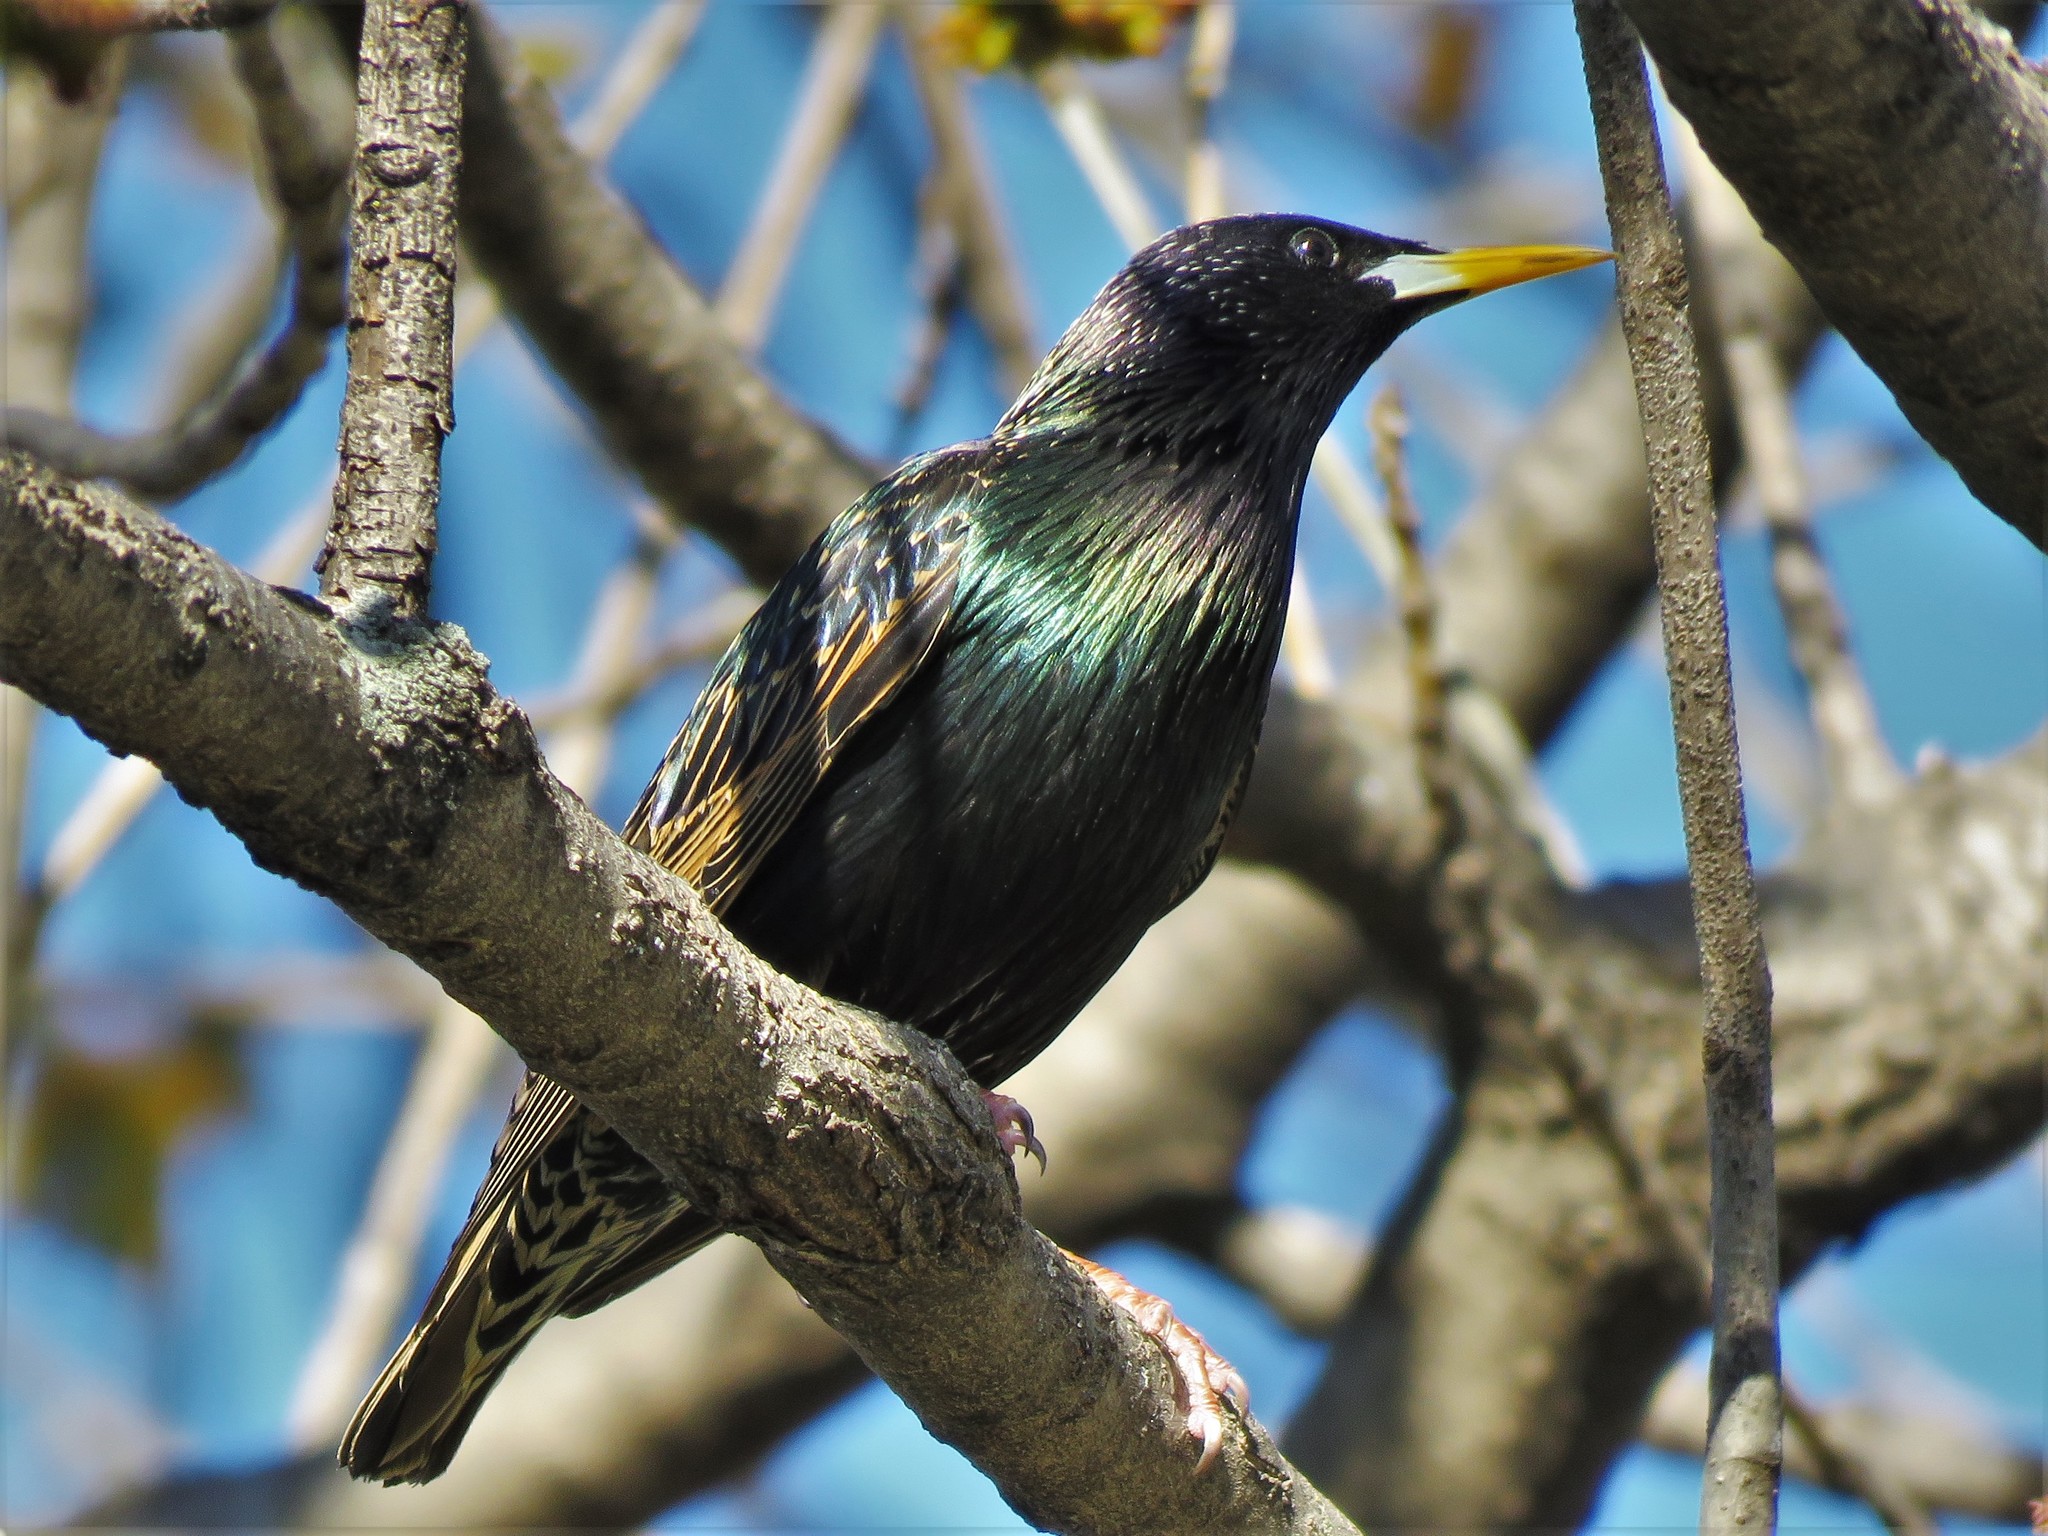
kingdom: Animalia
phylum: Chordata
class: Aves
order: Passeriformes
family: Sturnidae
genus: Sturnus
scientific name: Sturnus vulgaris
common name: Common starling
